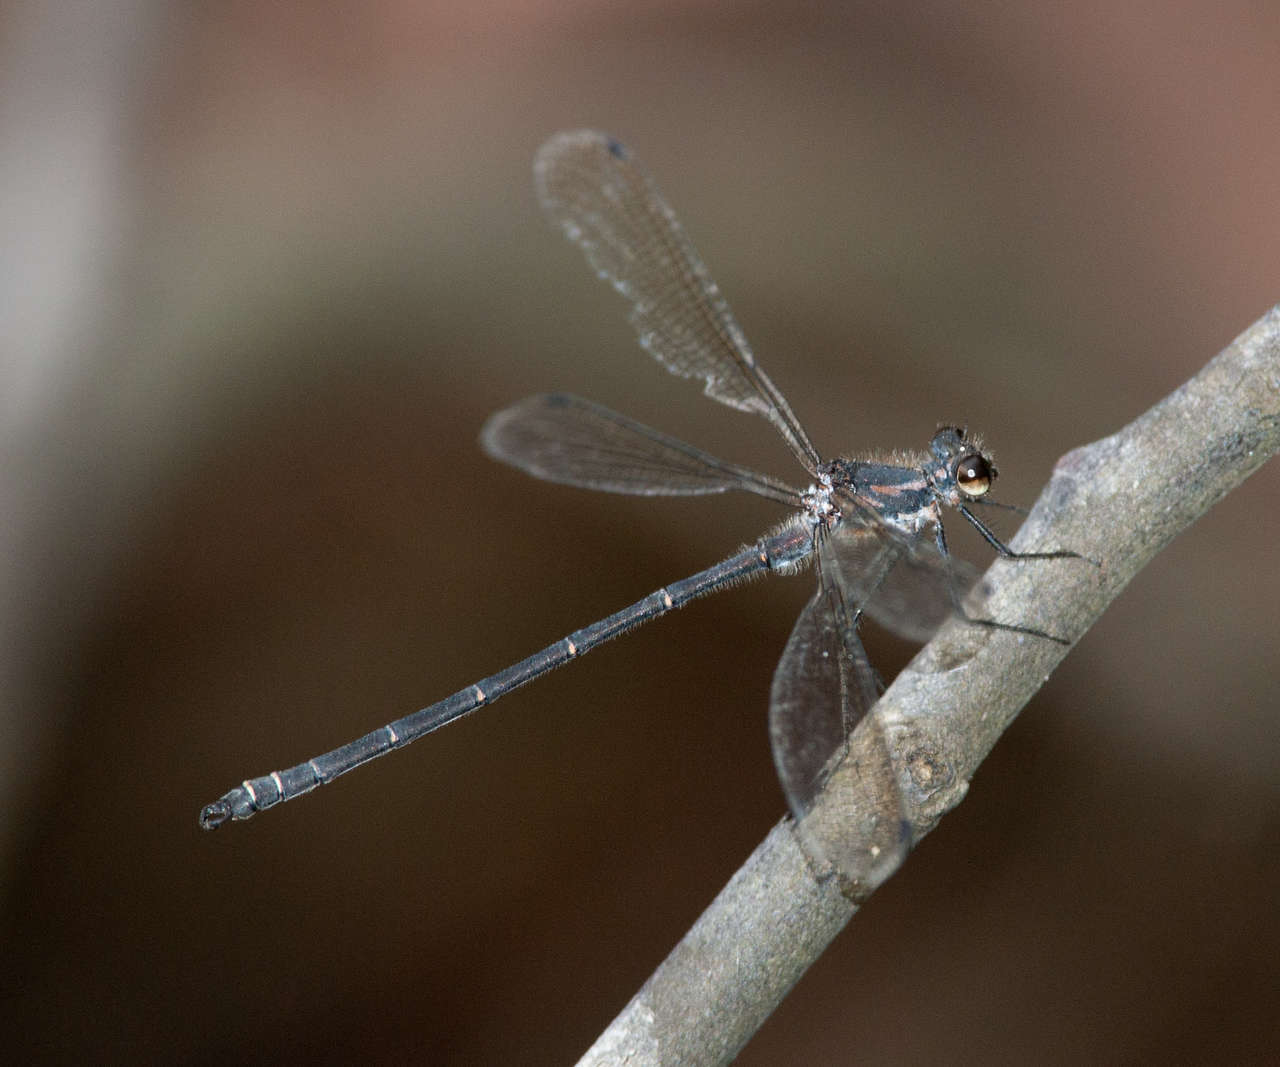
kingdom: Animalia
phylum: Arthropoda
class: Insecta
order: Odonata
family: Argiolestidae
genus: Austroargiolestes
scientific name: Austroargiolestes icteromelas
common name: Common flatwing
